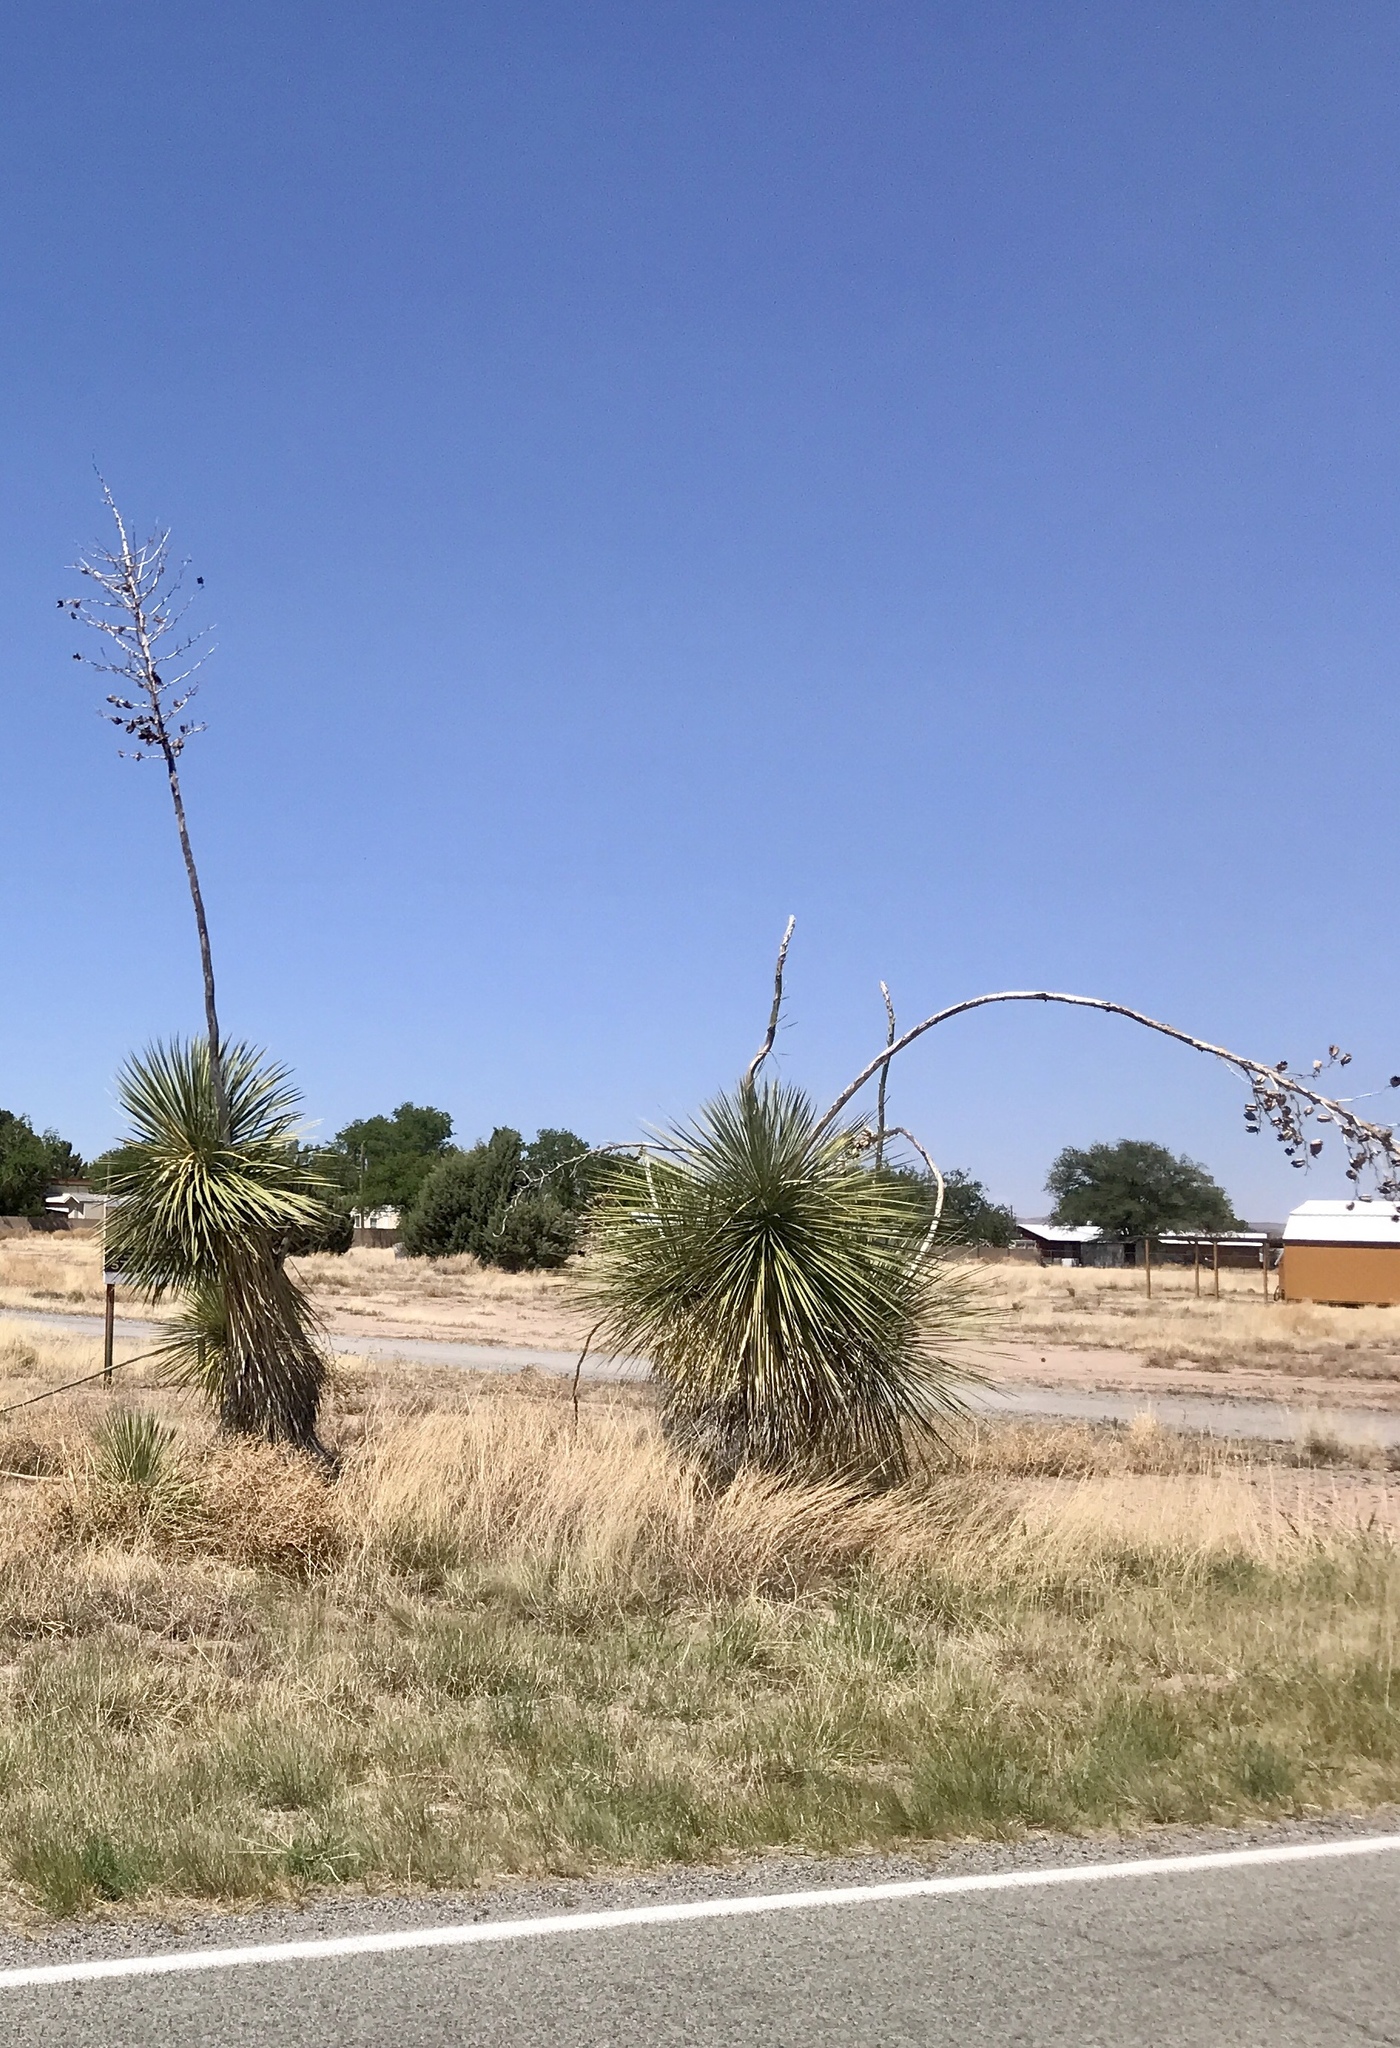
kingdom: Plantae
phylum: Tracheophyta
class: Liliopsida
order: Asparagales
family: Asparagaceae
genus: Yucca
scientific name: Yucca elata
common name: Palmella
